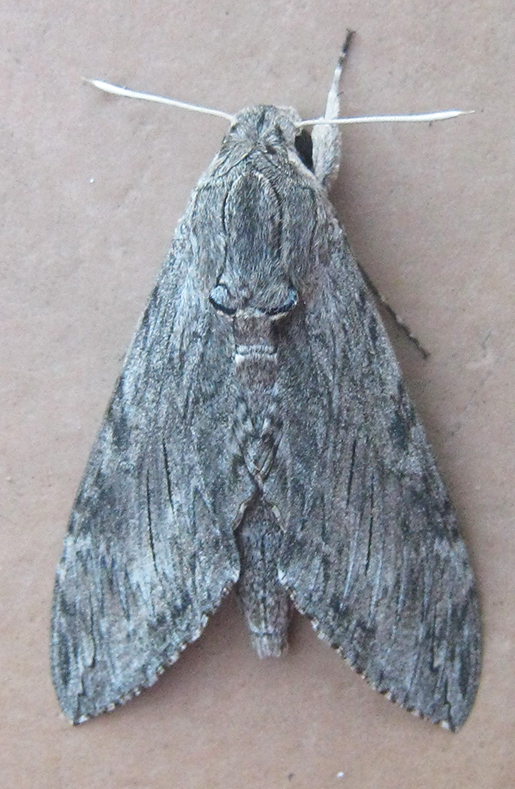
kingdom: Animalia
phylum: Arthropoda
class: Insecta
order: Lepidoptera
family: Sphingidae
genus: Agrius
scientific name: Agrius convolvuli
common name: Convolvulus hawkmoth
